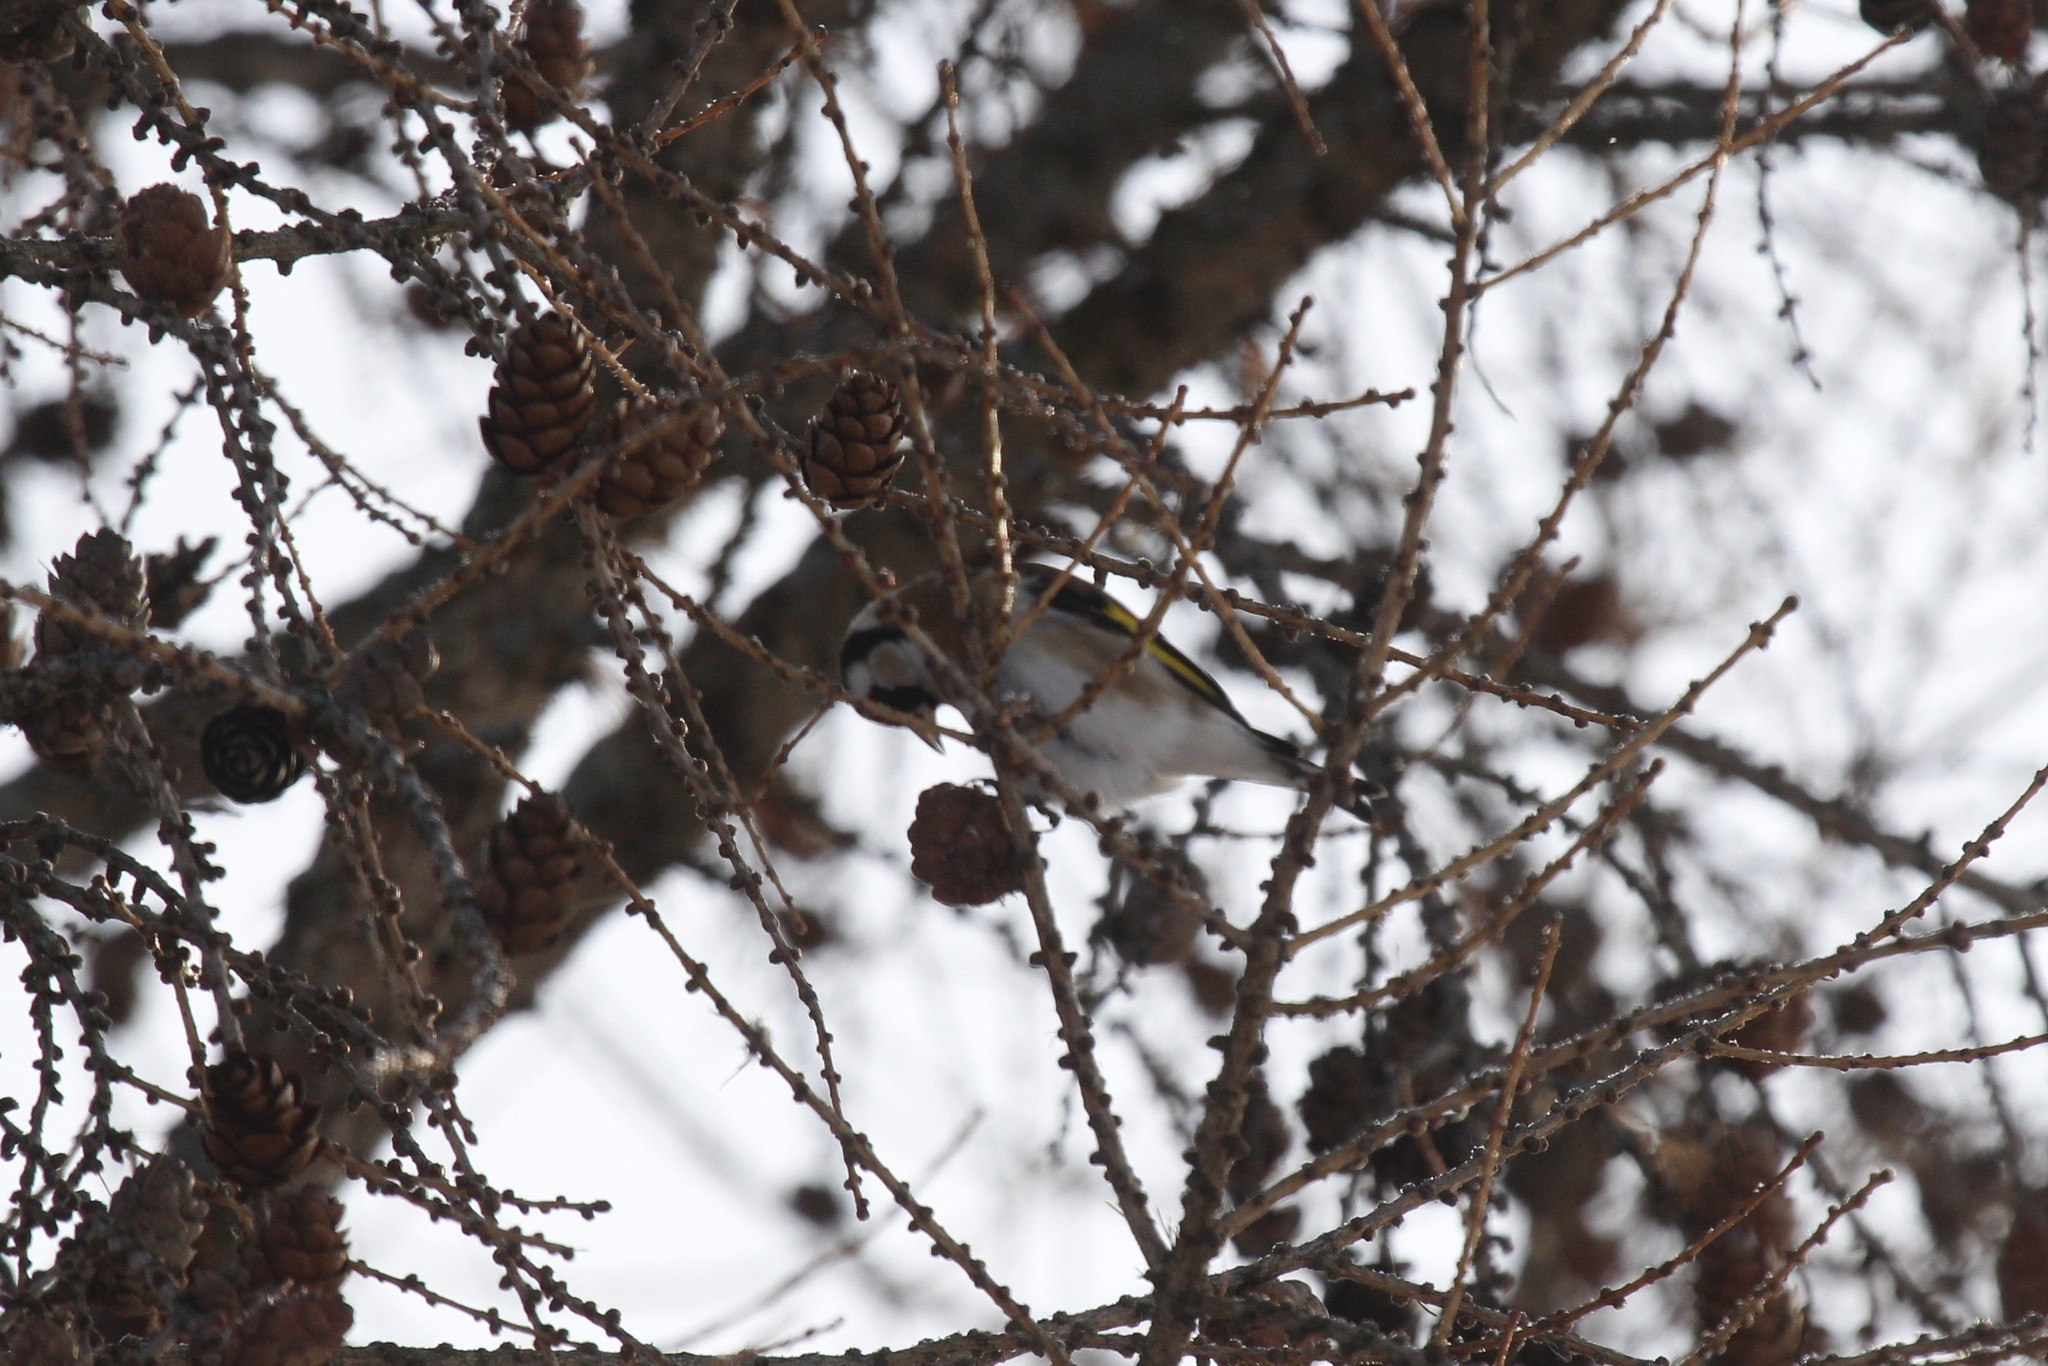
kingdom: Animalia
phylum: Chordata
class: Aves
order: Passeriformes
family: Fringillidae
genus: Carduelis
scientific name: Carduelis carduelis
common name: European goldfinch
